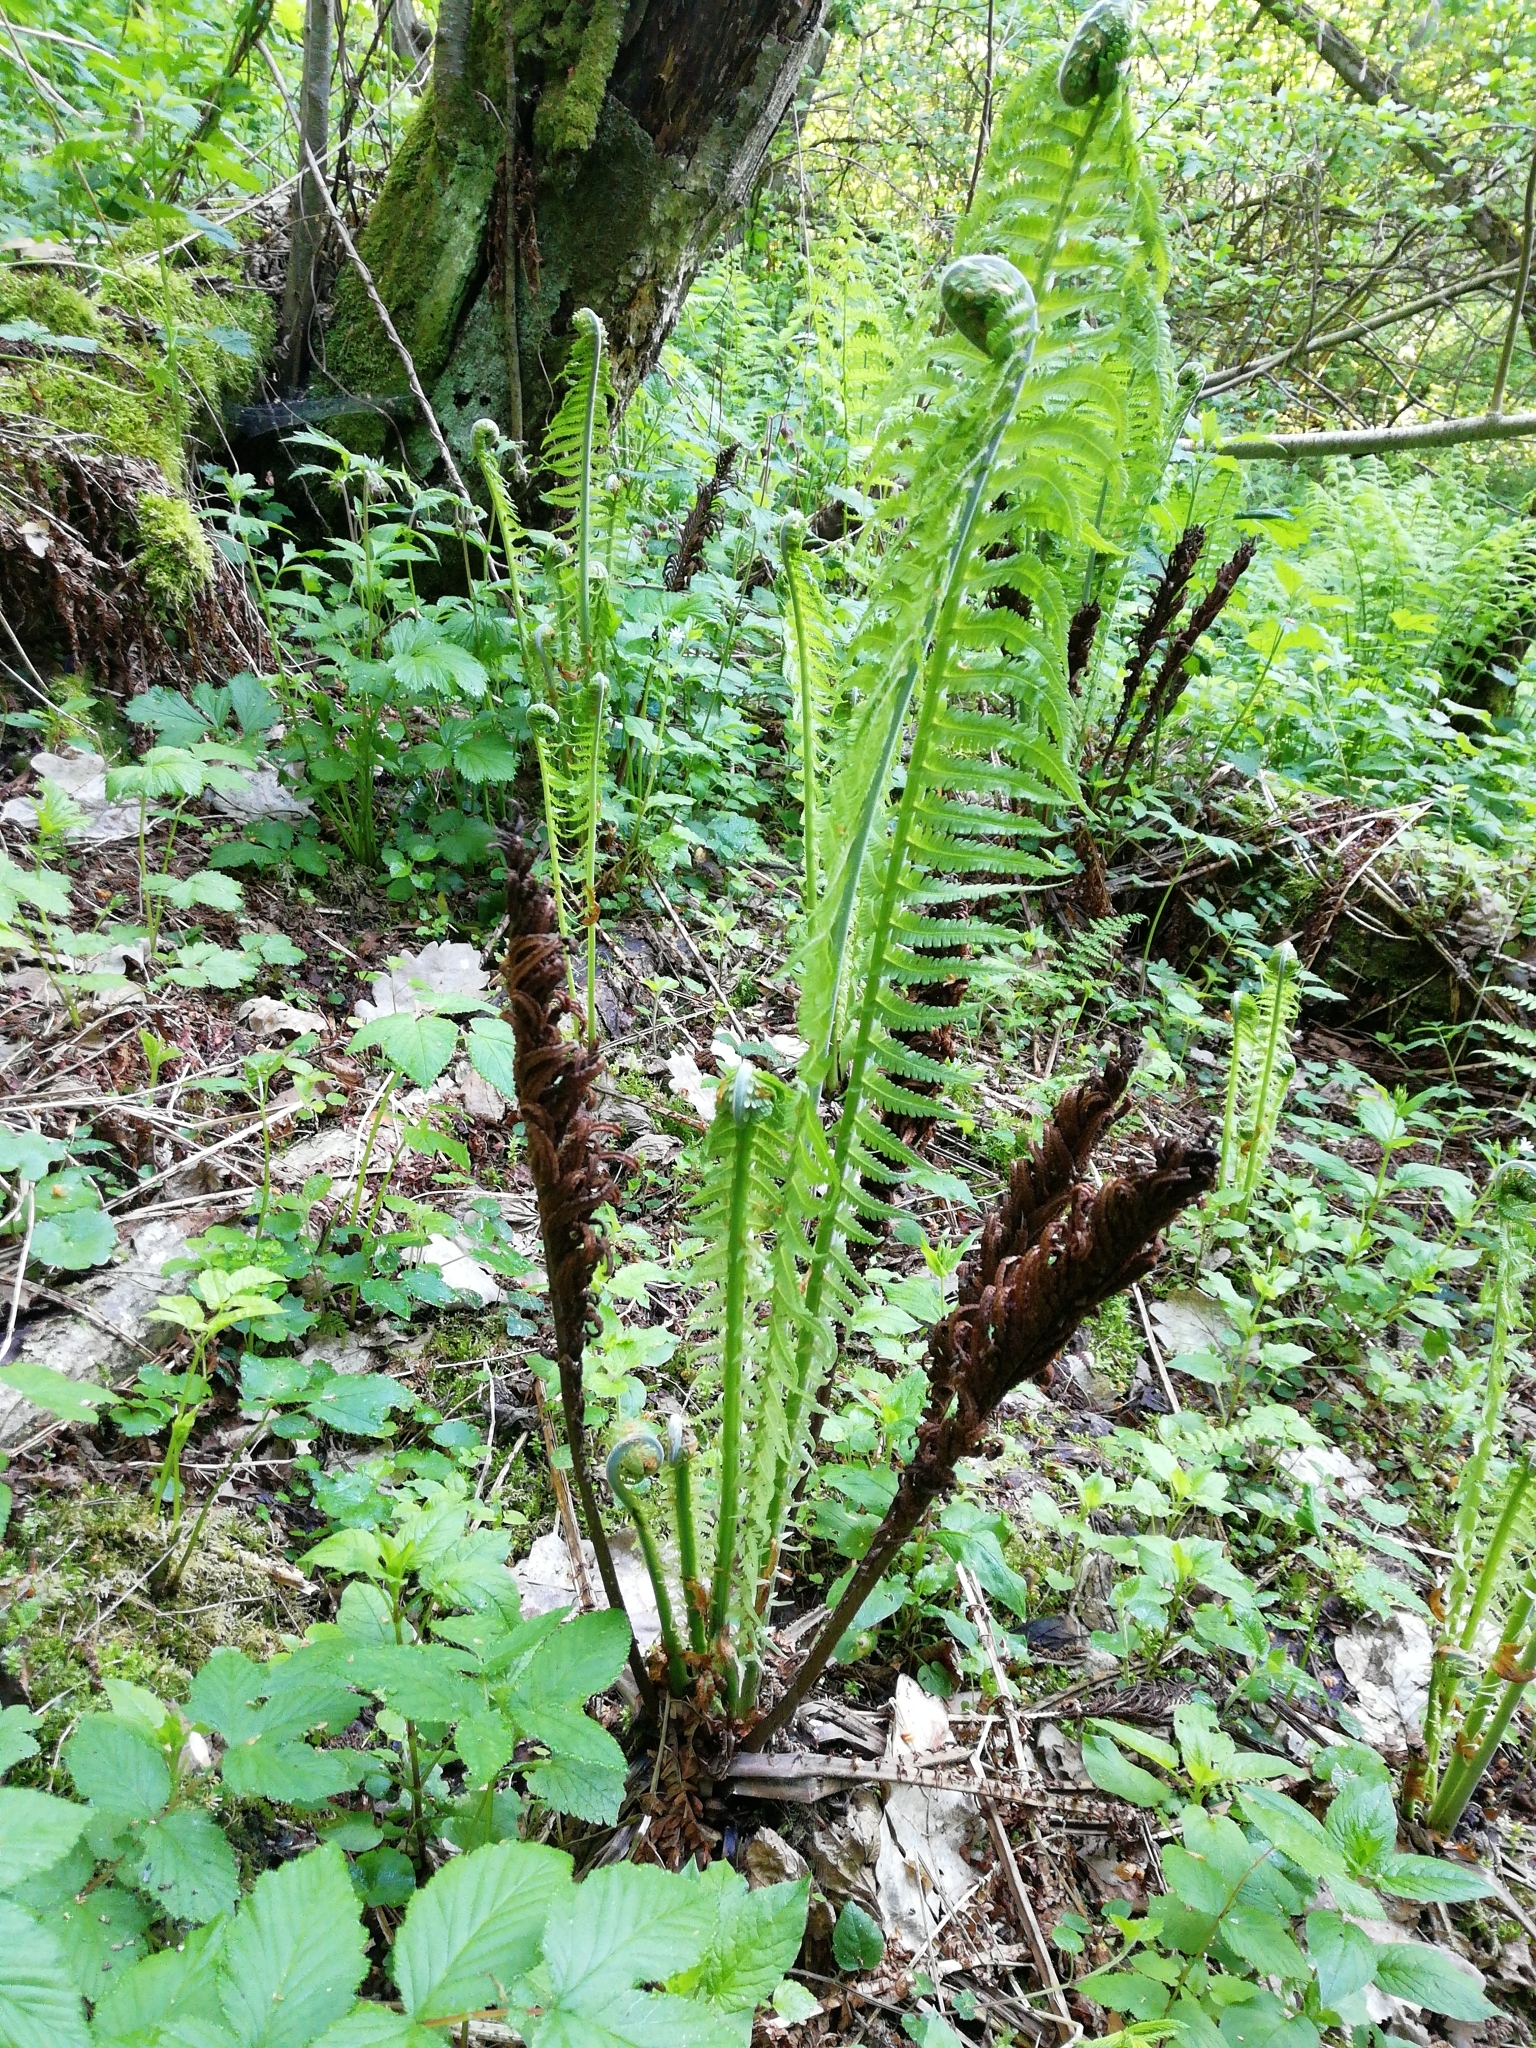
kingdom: Plantae
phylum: Tracheophyta
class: Polypodiopsida
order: Polypodiales
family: Onocleaceae
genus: Matteuccia
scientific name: Matteuccia struthiopteris
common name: Ostrich fern
